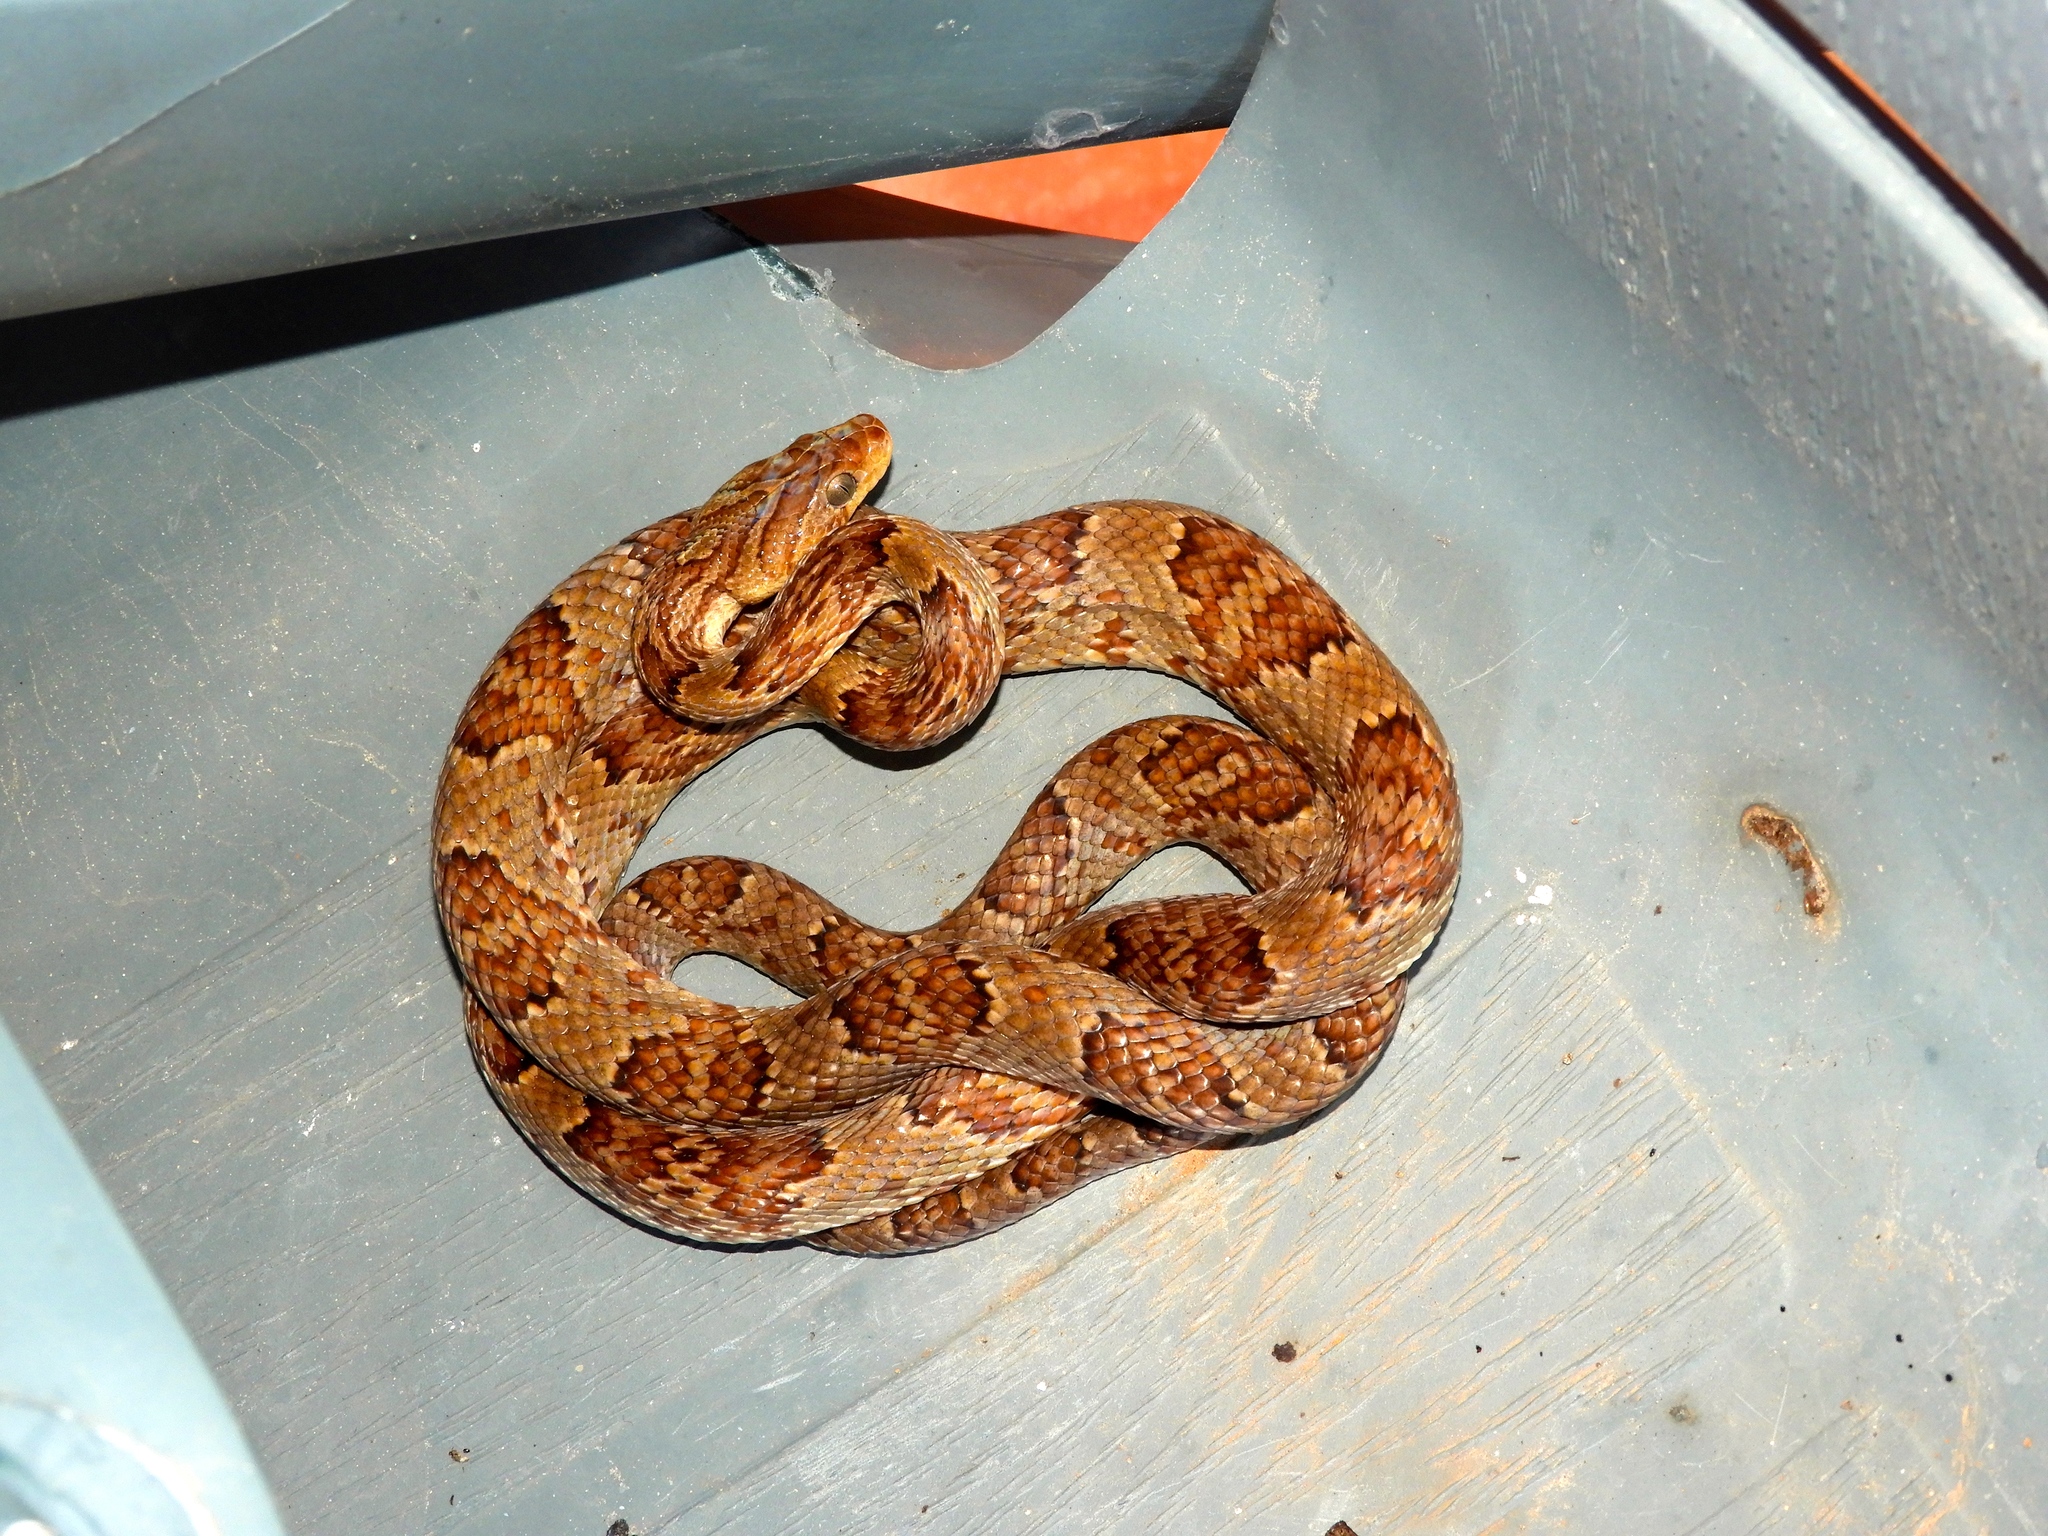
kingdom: Animalia
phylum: Chordata
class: Squamata
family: Colubridae
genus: Trimorphodon
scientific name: Trimorphodon paucimaculatus
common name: Sinaloan lyresnake
